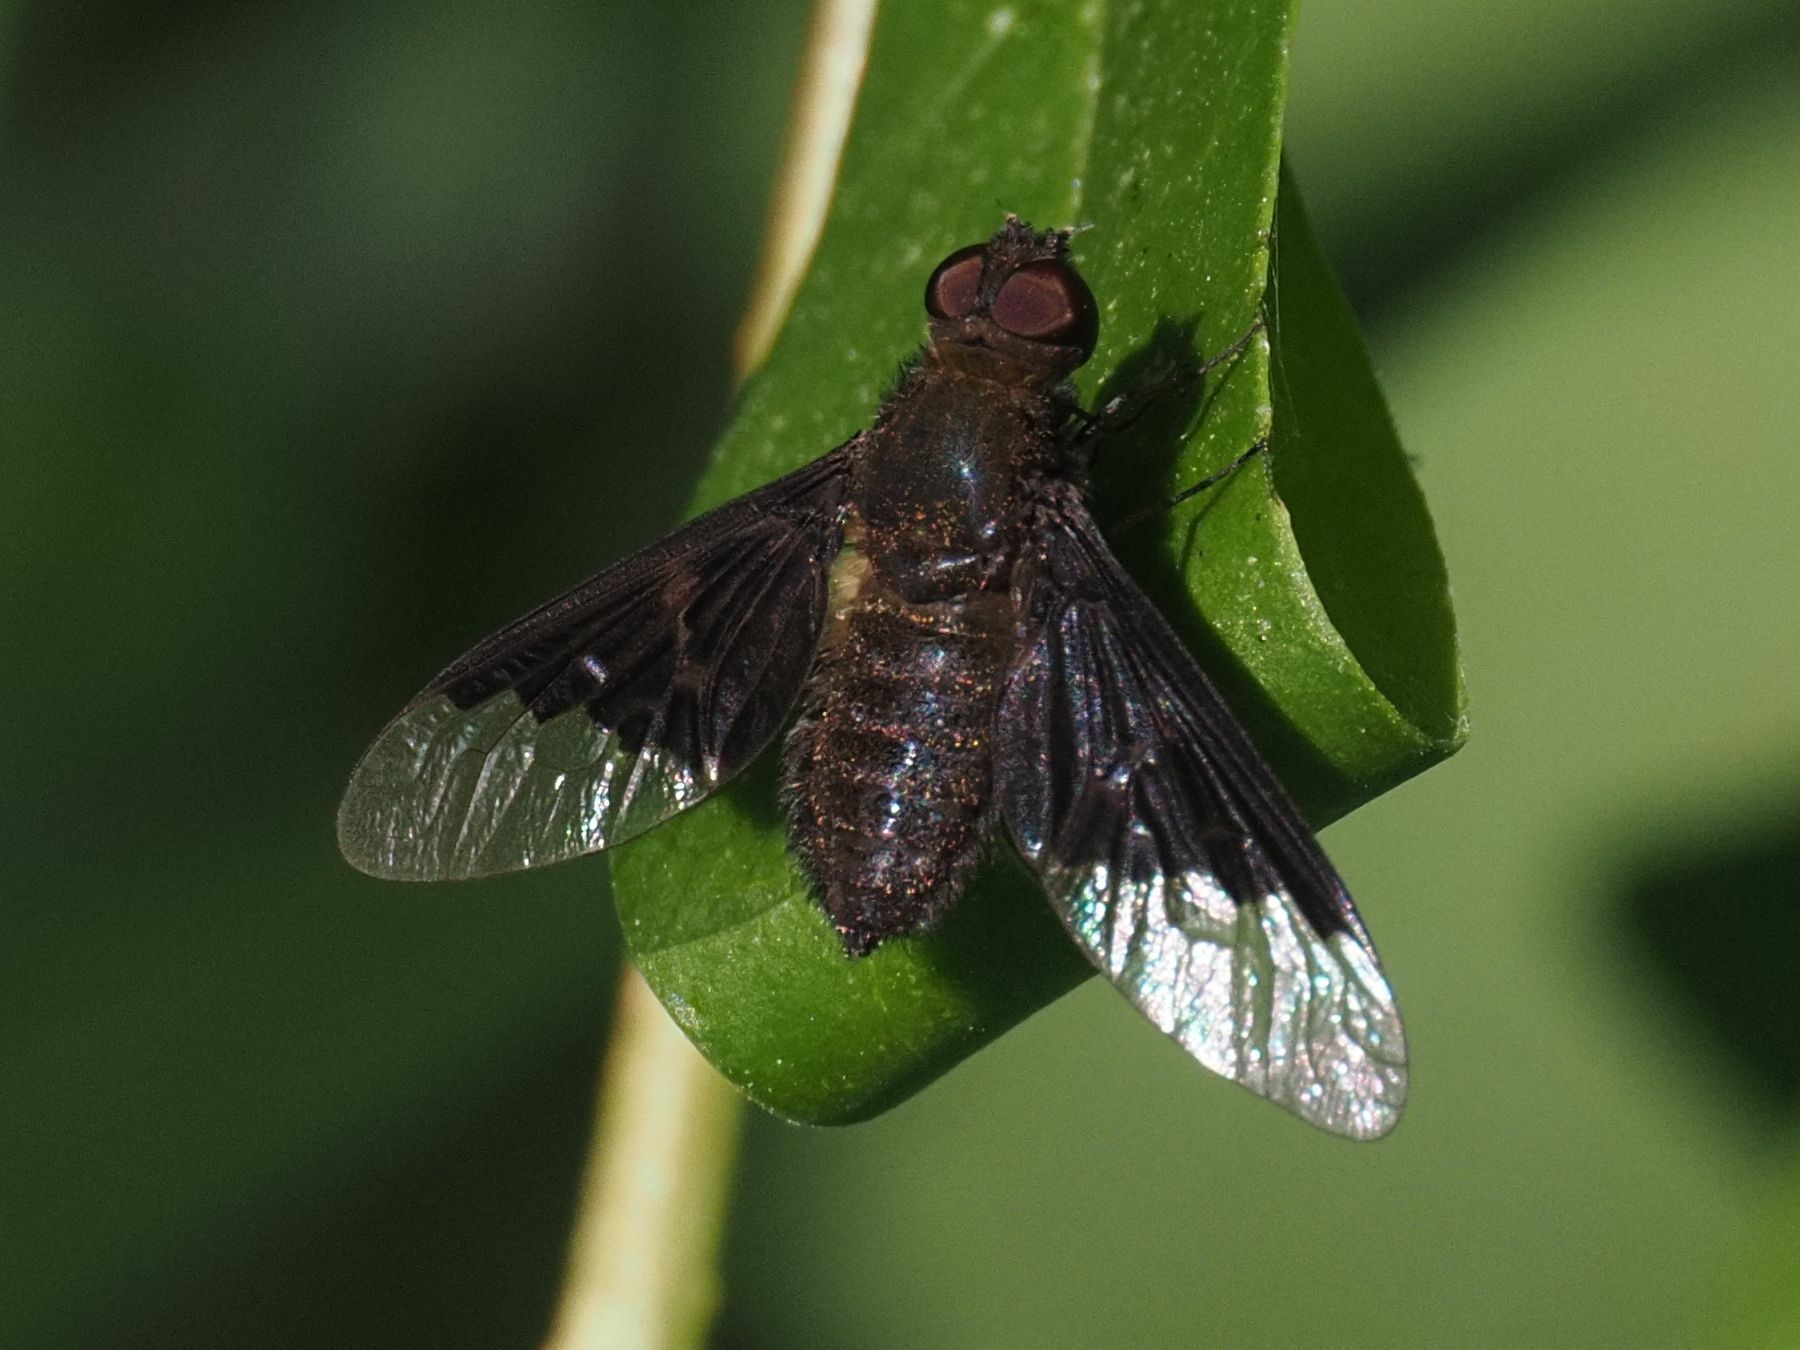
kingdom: Animalia
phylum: Arthropoda
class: Insecta
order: Diptera
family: Bombyliidae
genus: Hemipenthes
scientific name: Hemipenthes morio
